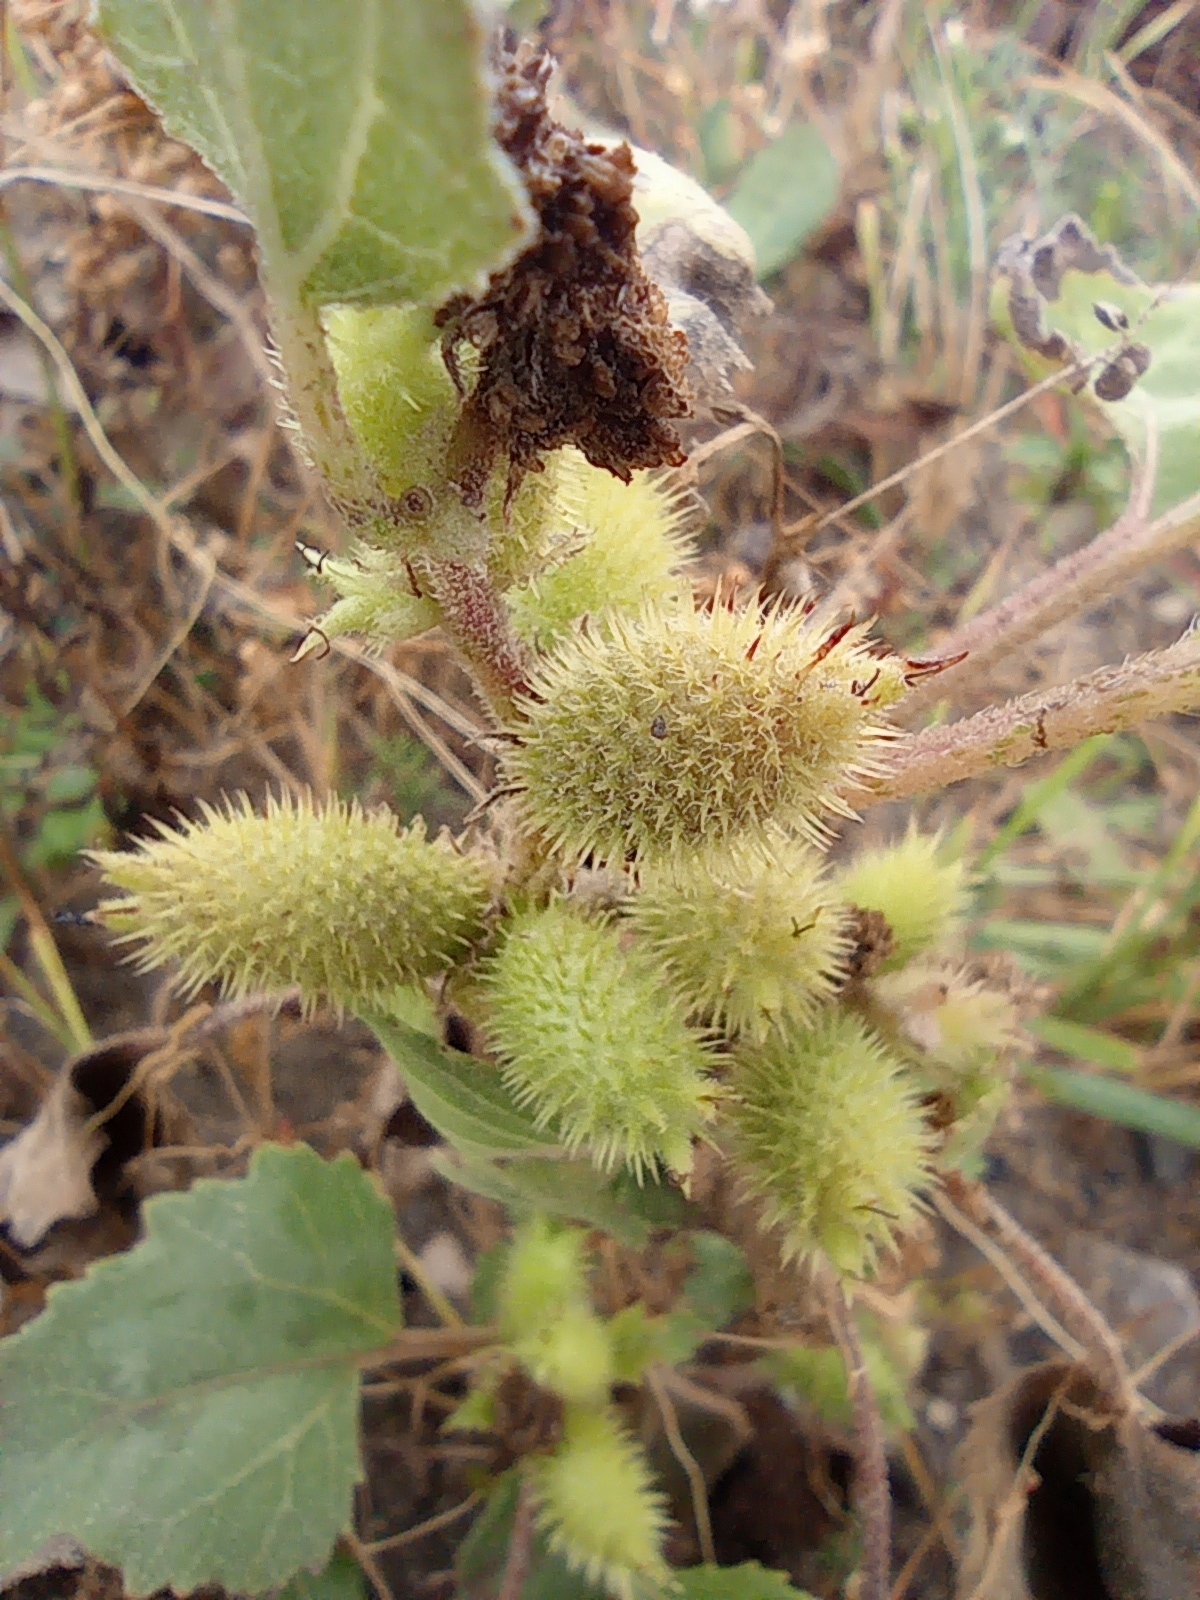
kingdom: Plantae
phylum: Tracheophyta
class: Magnoliopsida
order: Asterales
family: Asteraceae
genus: Xanthium
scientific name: Xanthium orientale
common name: Californian burr
